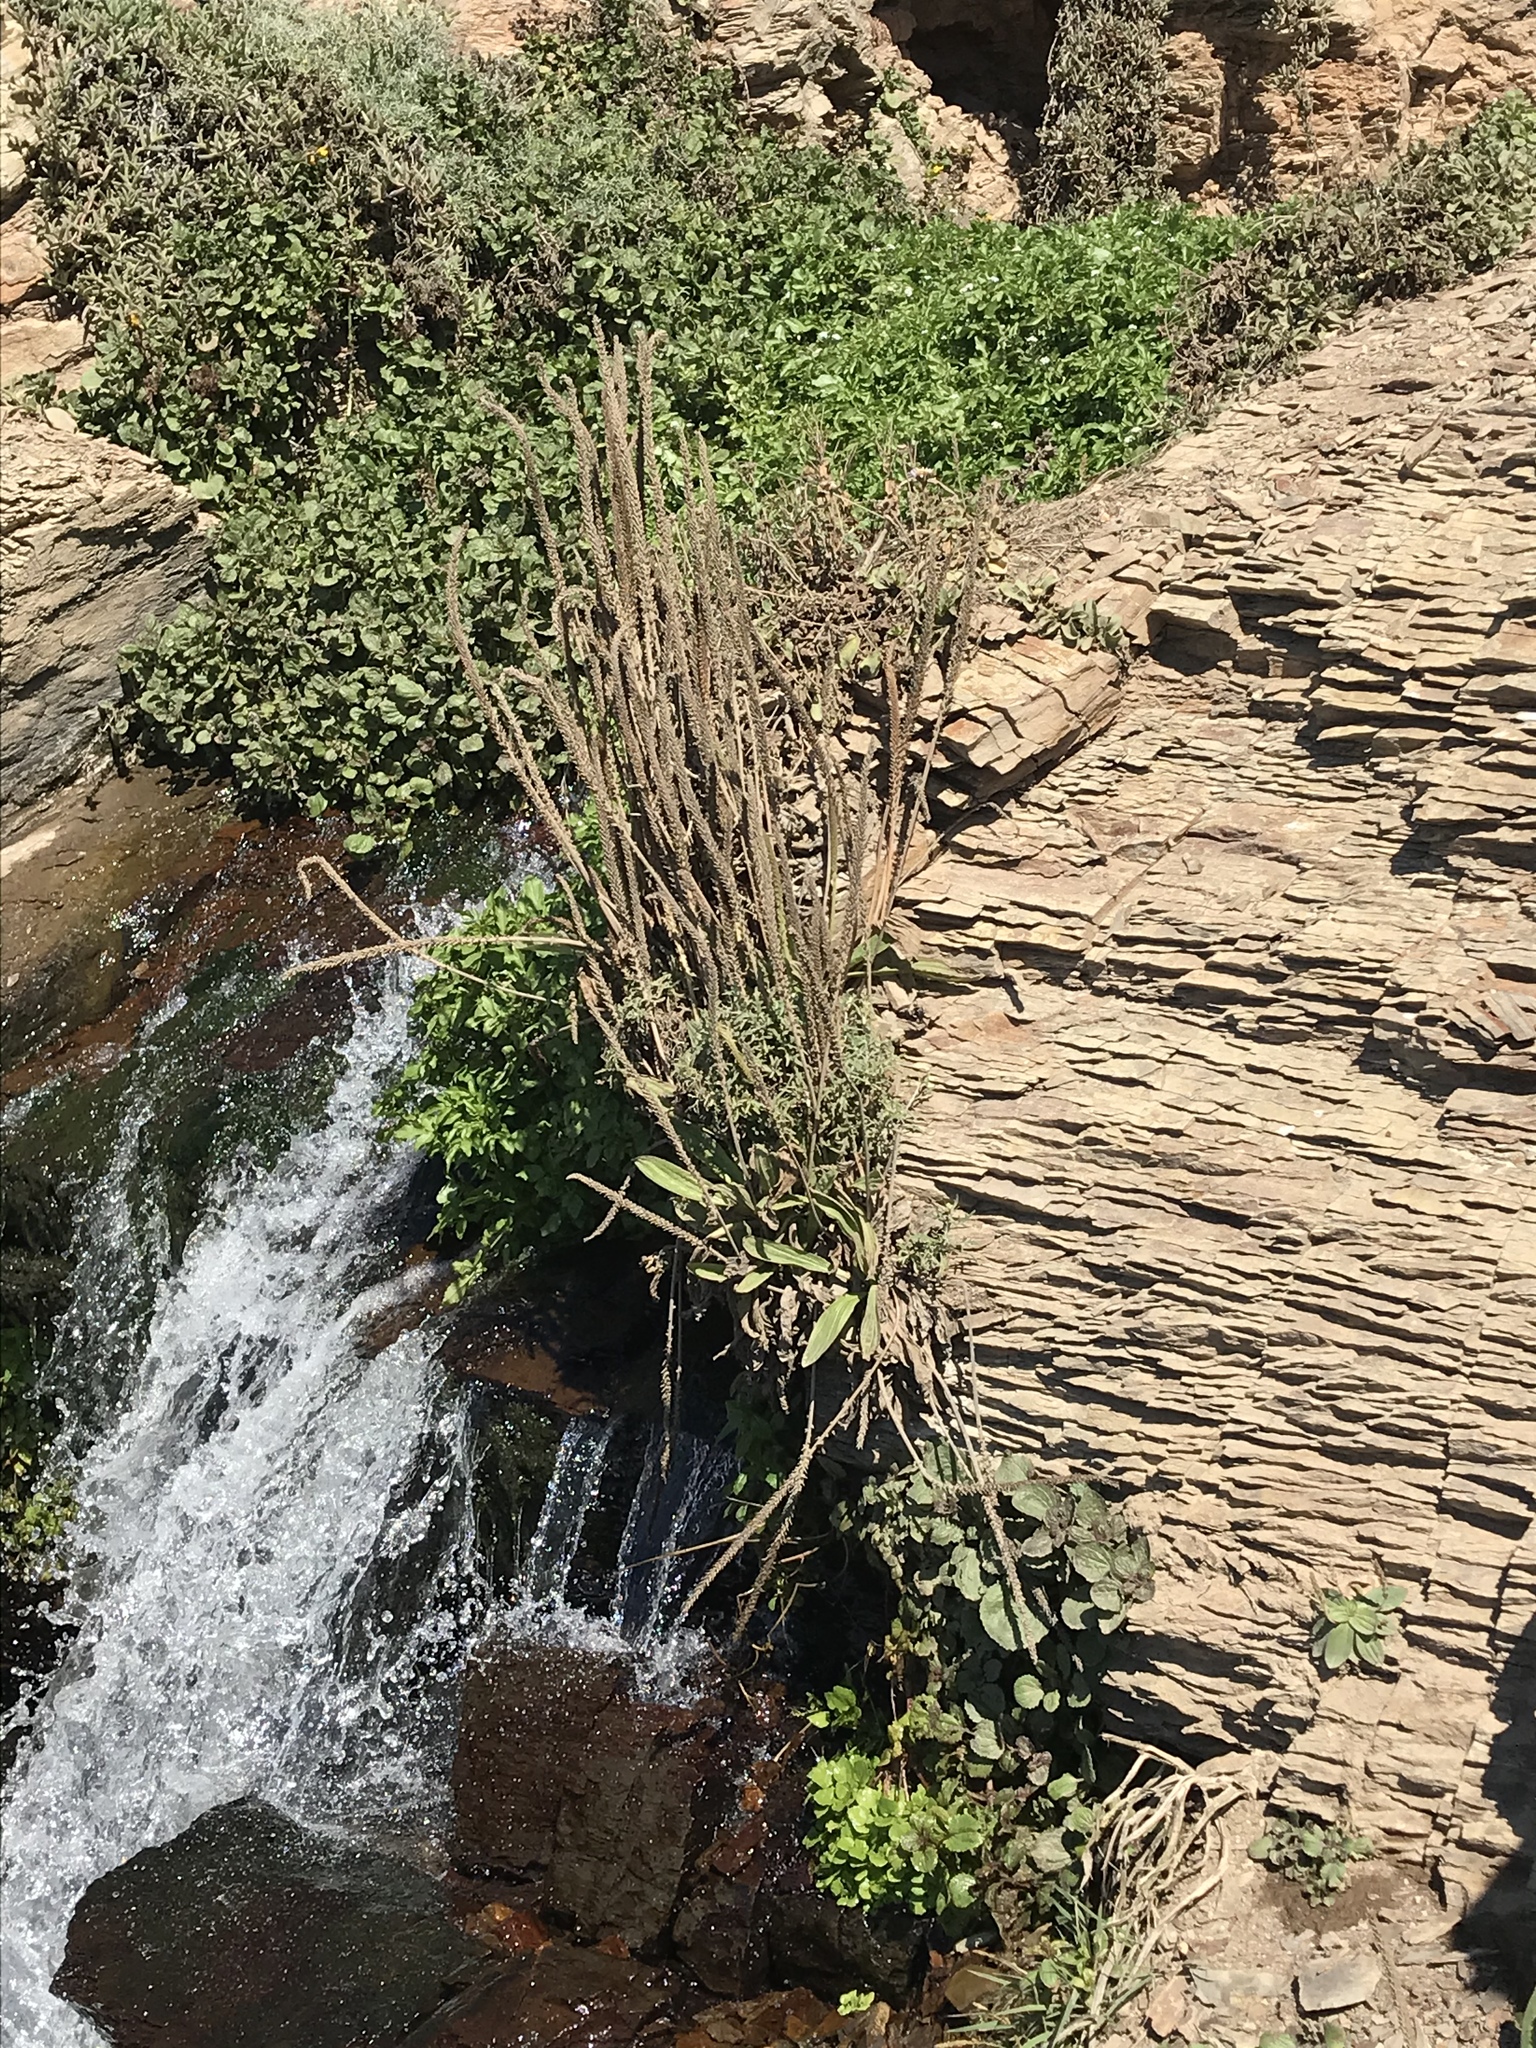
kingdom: Plantae
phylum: Tracheophyta
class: Magnoliopsida
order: Lamiales
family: Plantaginaceae
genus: Plantago
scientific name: Plantago subnuda
